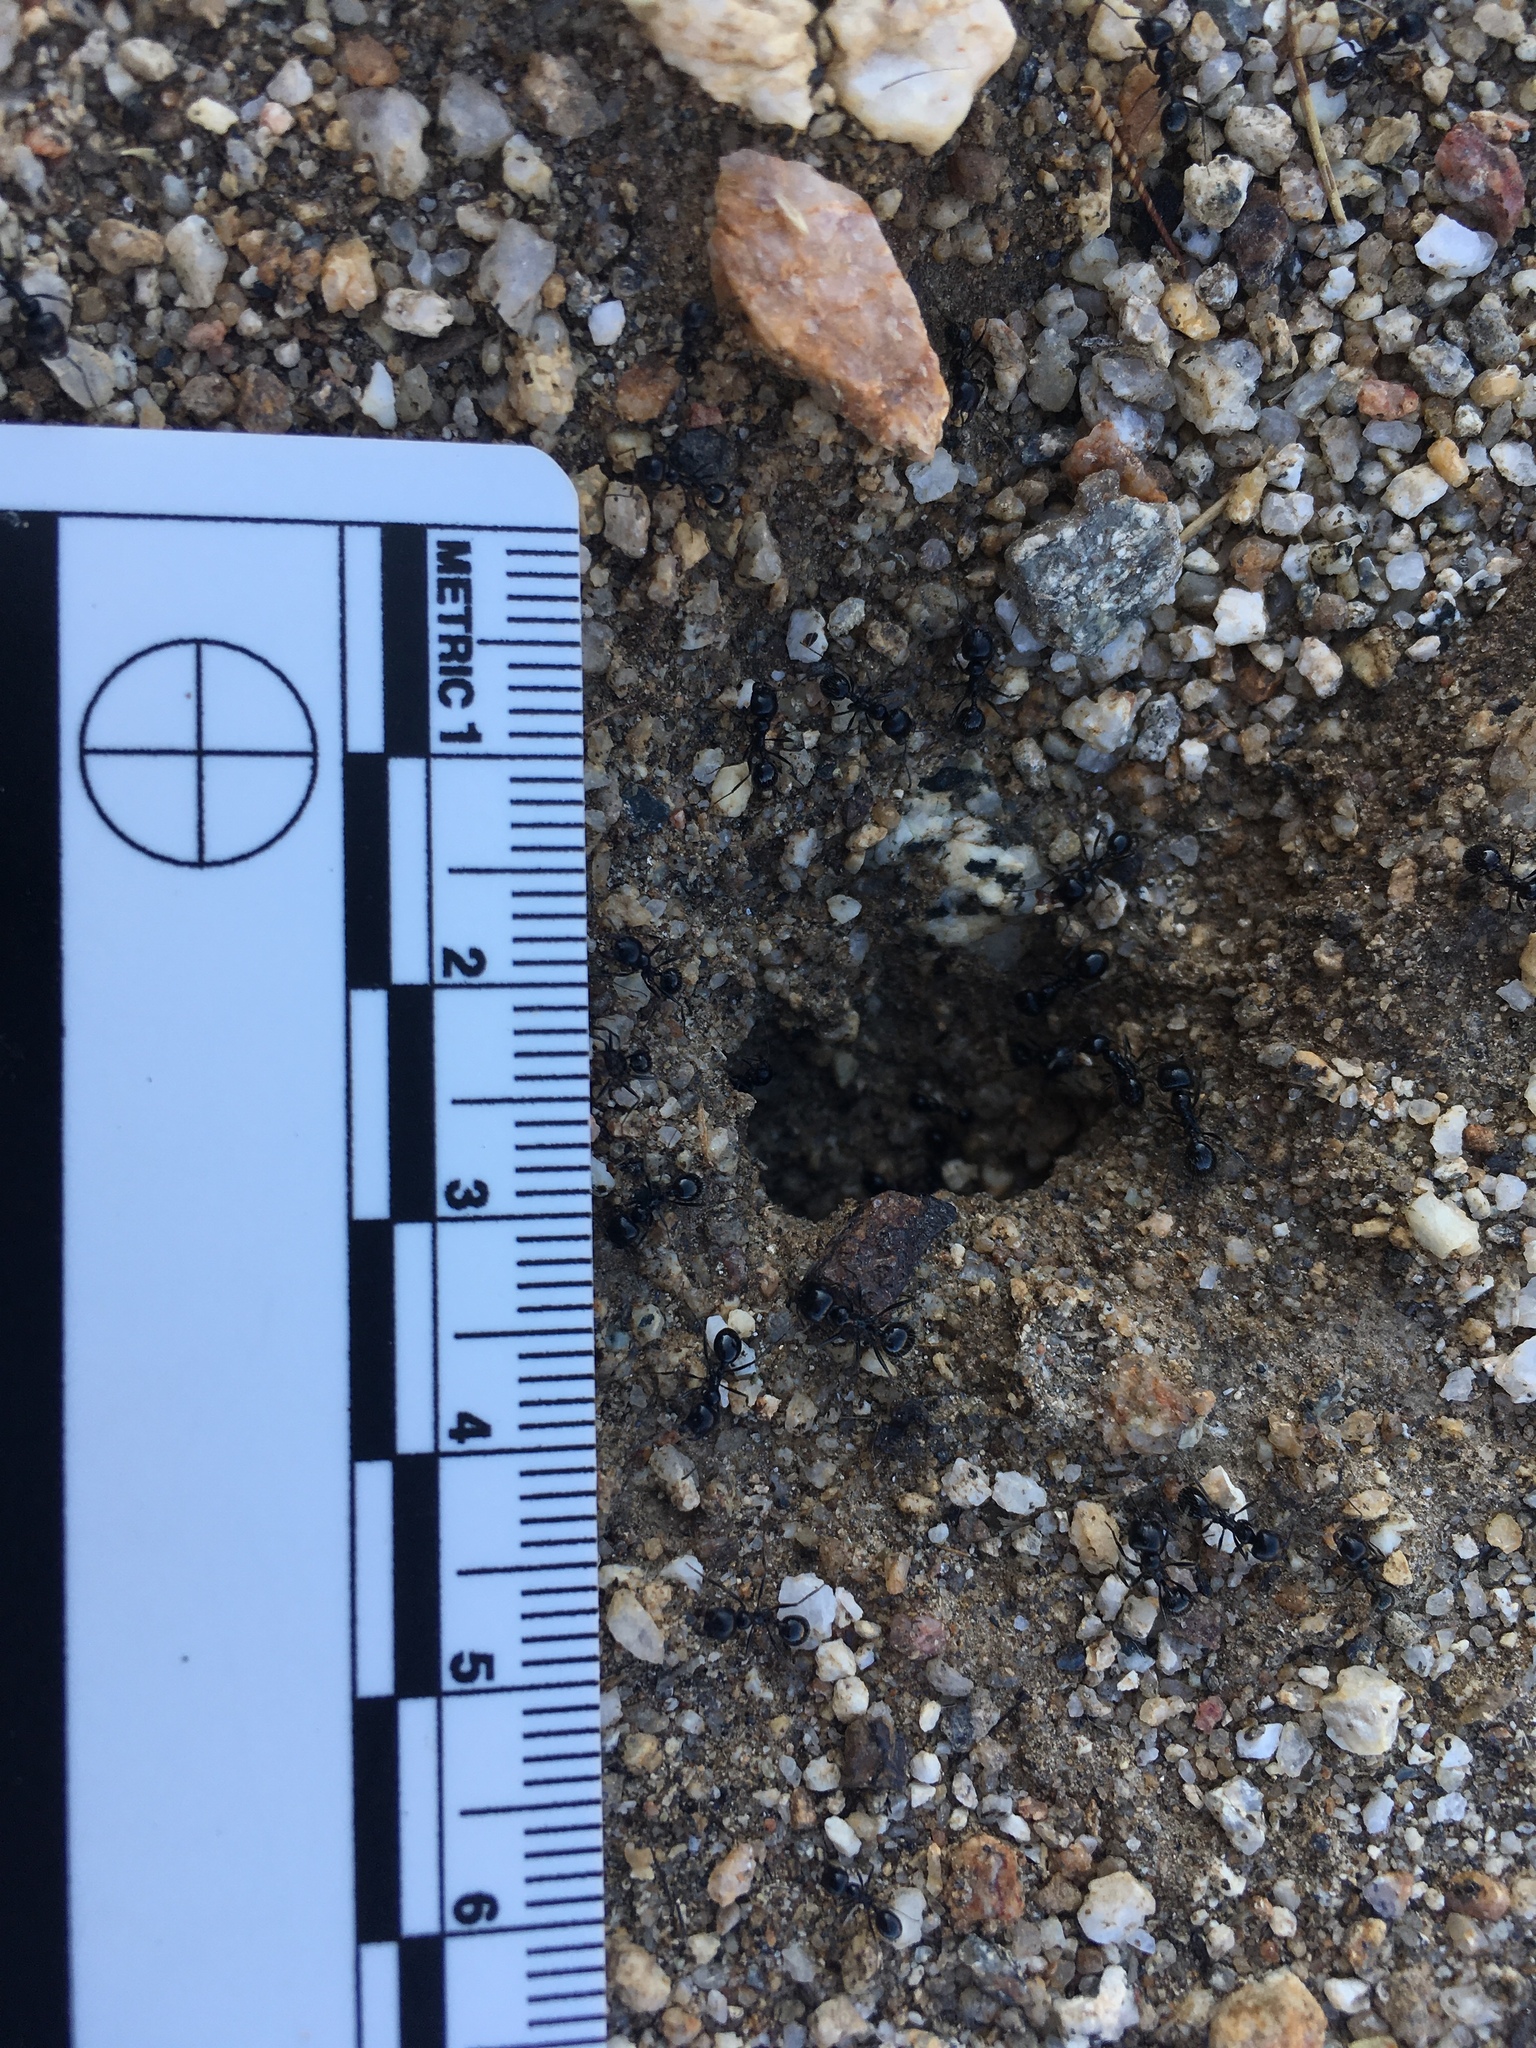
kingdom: Animalia
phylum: Arthropoda
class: Insecta
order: Hymenoptera
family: Formicidae
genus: Messor
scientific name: Messor pergandei
